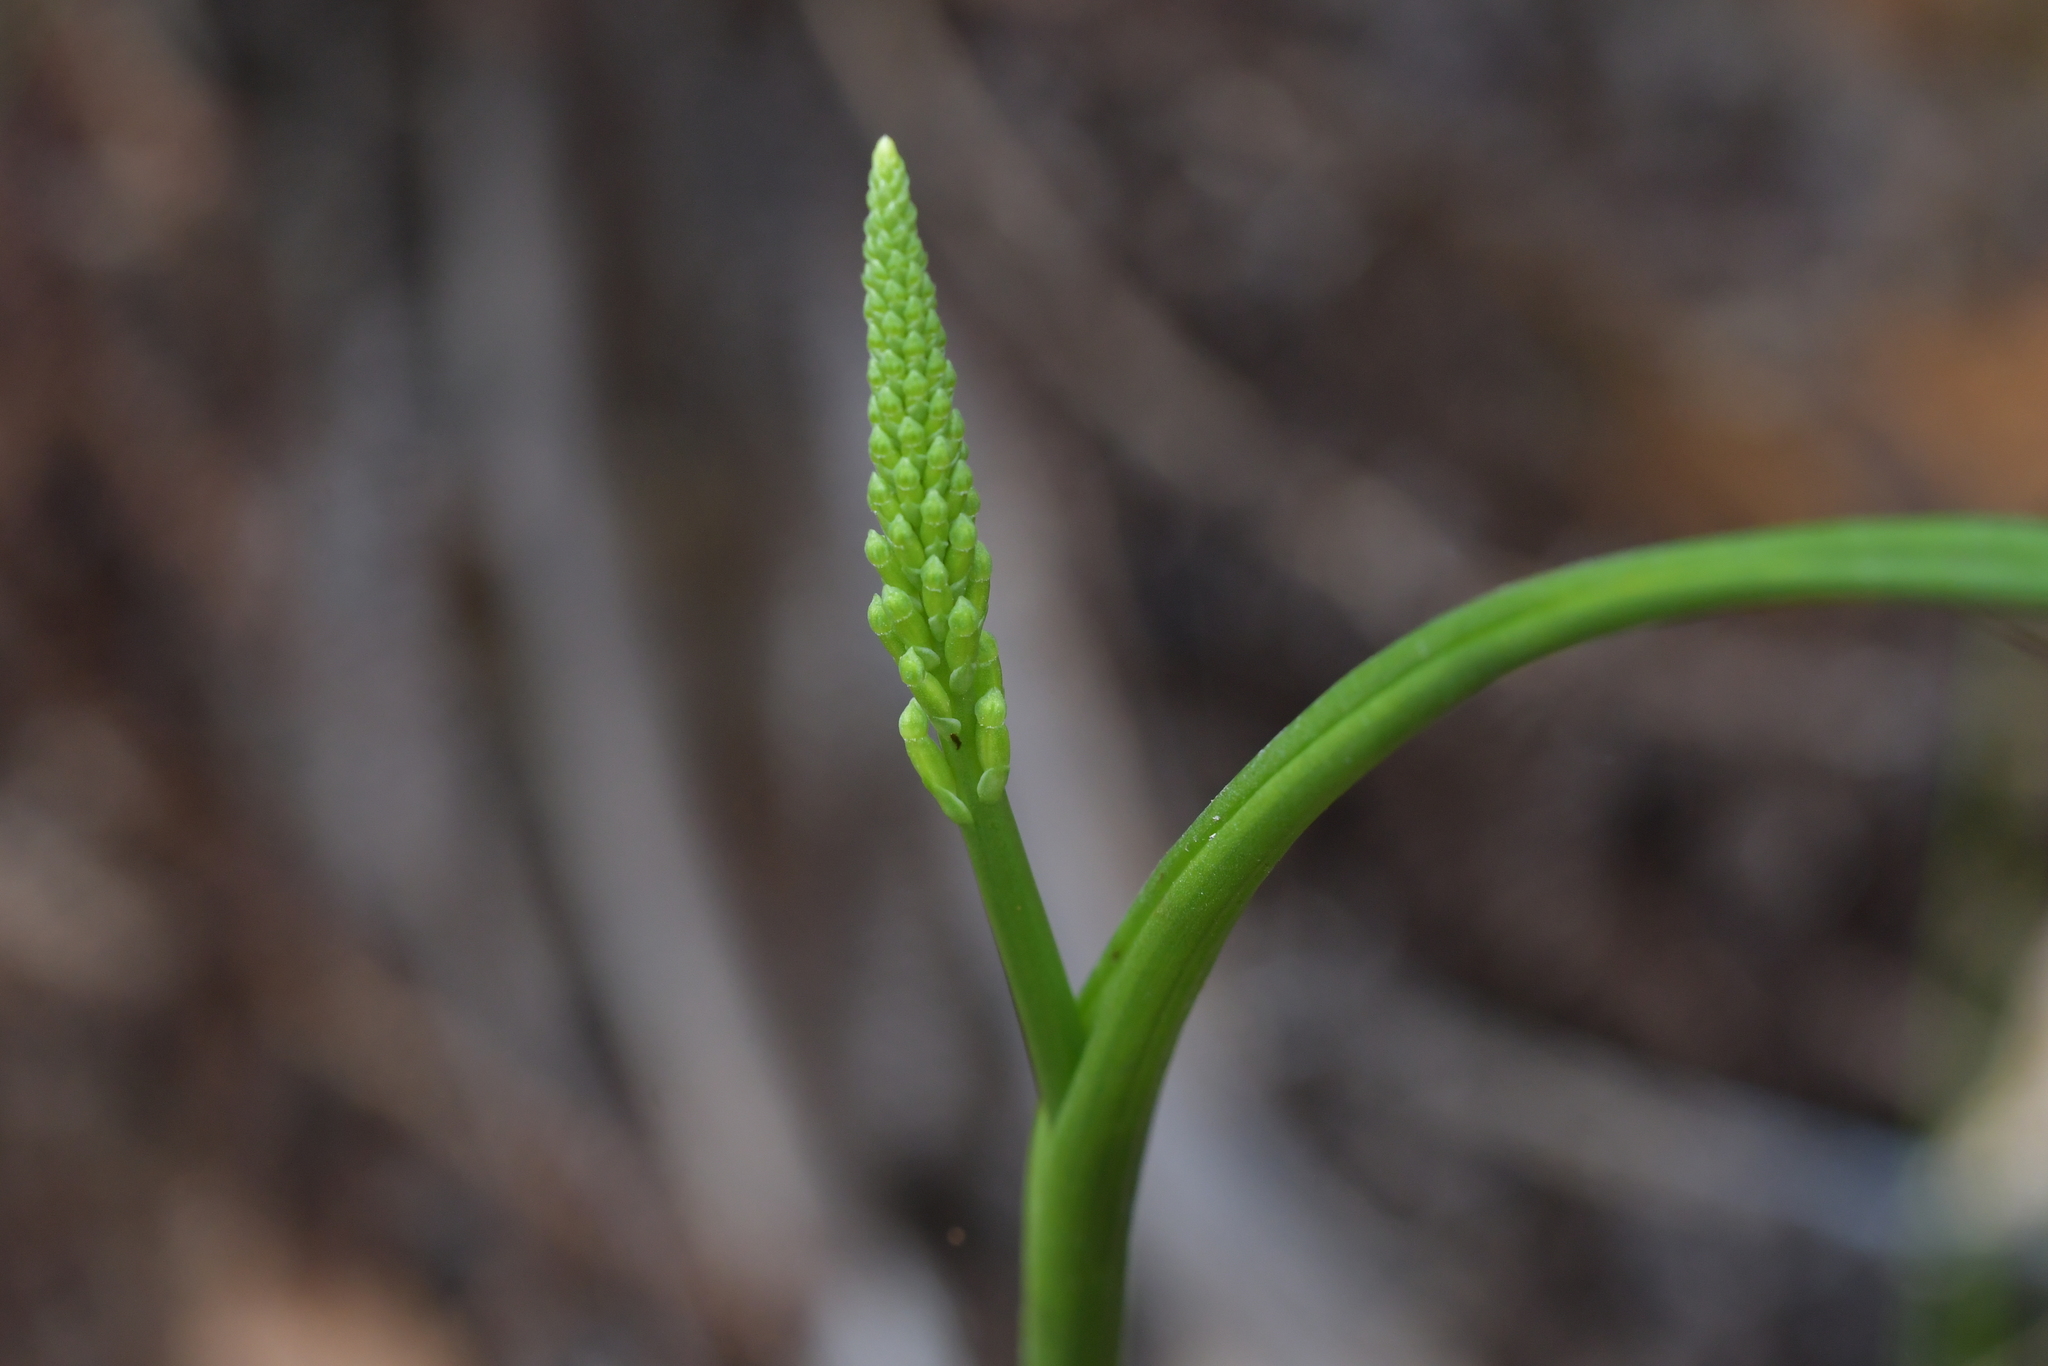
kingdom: Plantae
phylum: Tracheophyta
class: Liliopsida
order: Asparagales
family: Orchidaceae
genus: Microtis
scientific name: Microtis unifolia
